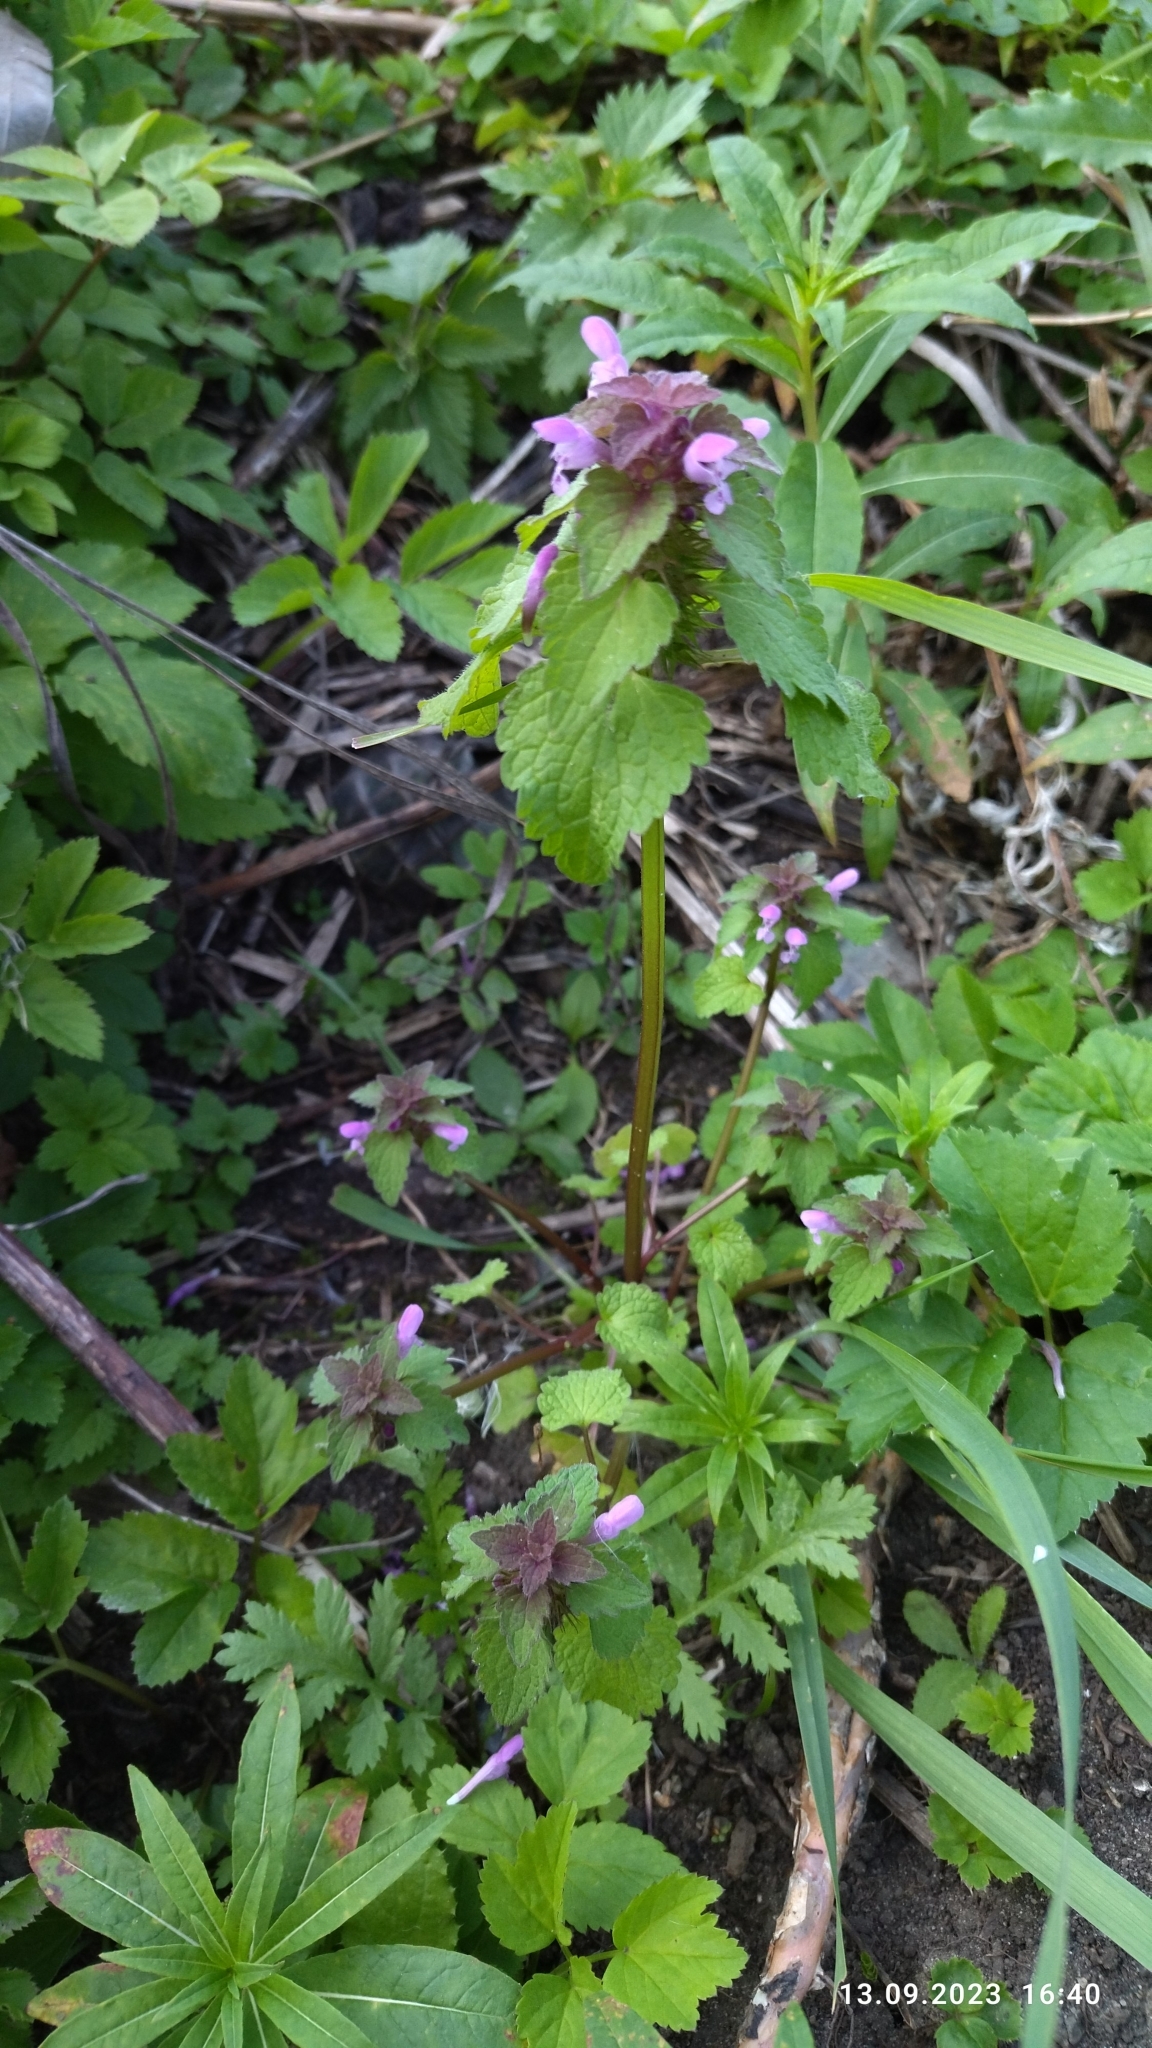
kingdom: Plantae
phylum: Tracheophyta
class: Magnoliopsida
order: Lamiales
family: Lamiaceae
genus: Lamium
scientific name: Lamium purpureum
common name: Red dead-nettle
